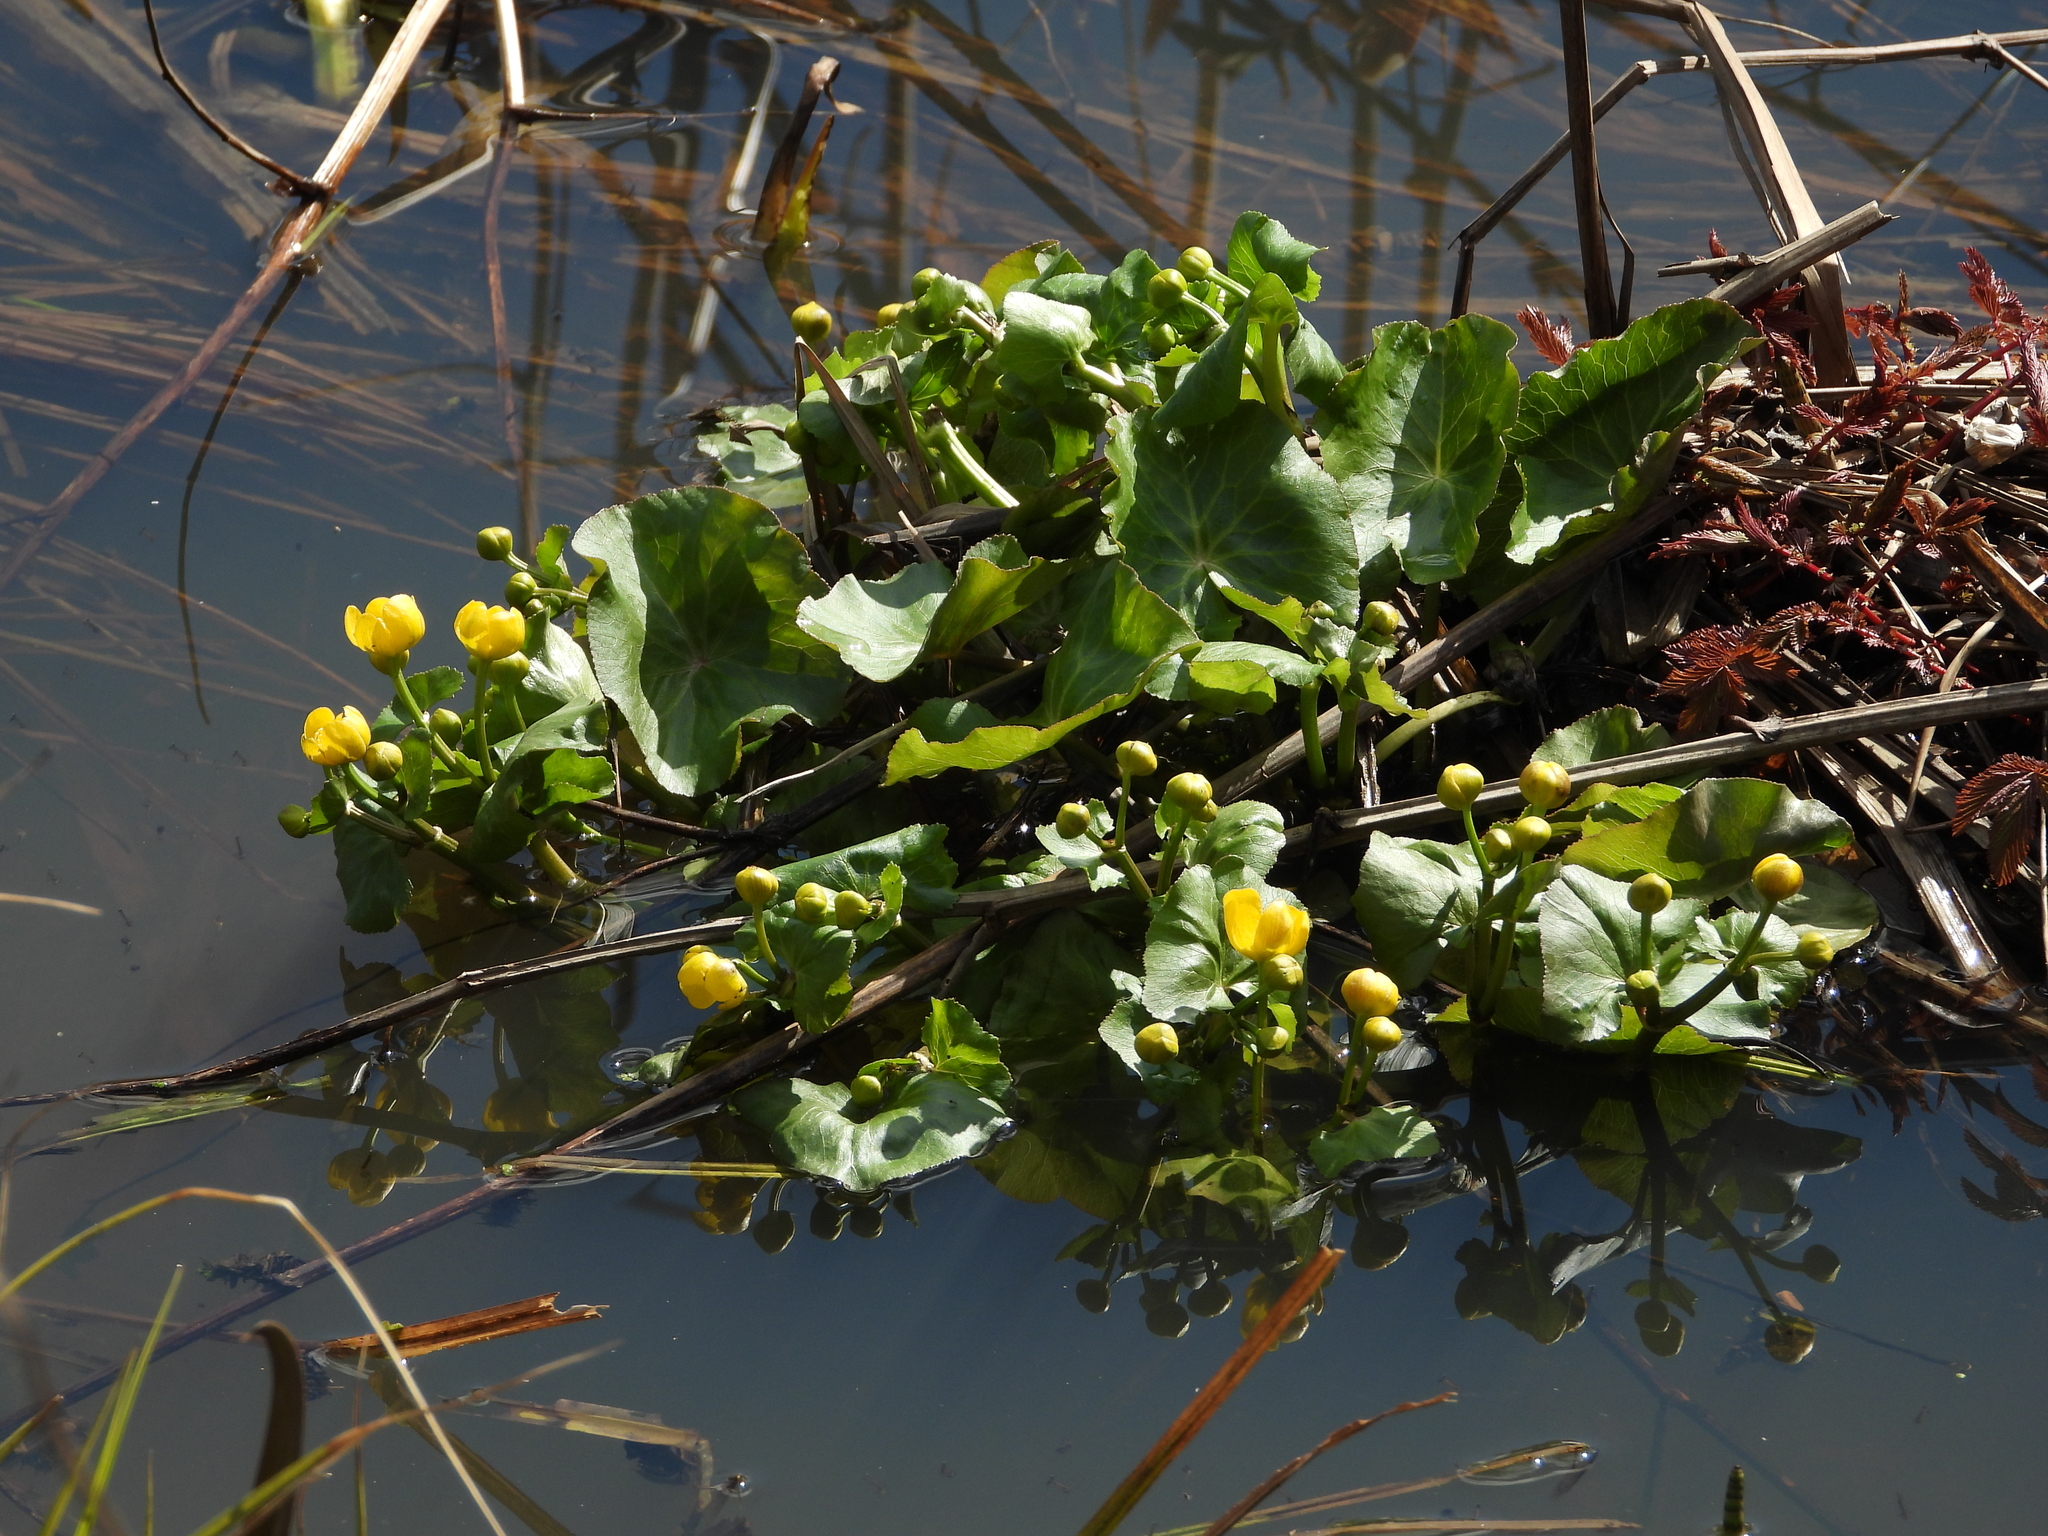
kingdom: Plantae
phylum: Tracheophyta
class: Magnoliopsida
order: Ranunculales
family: Ranunculaceae
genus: Caltha
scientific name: Caltha palustris
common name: Marsh marigold
